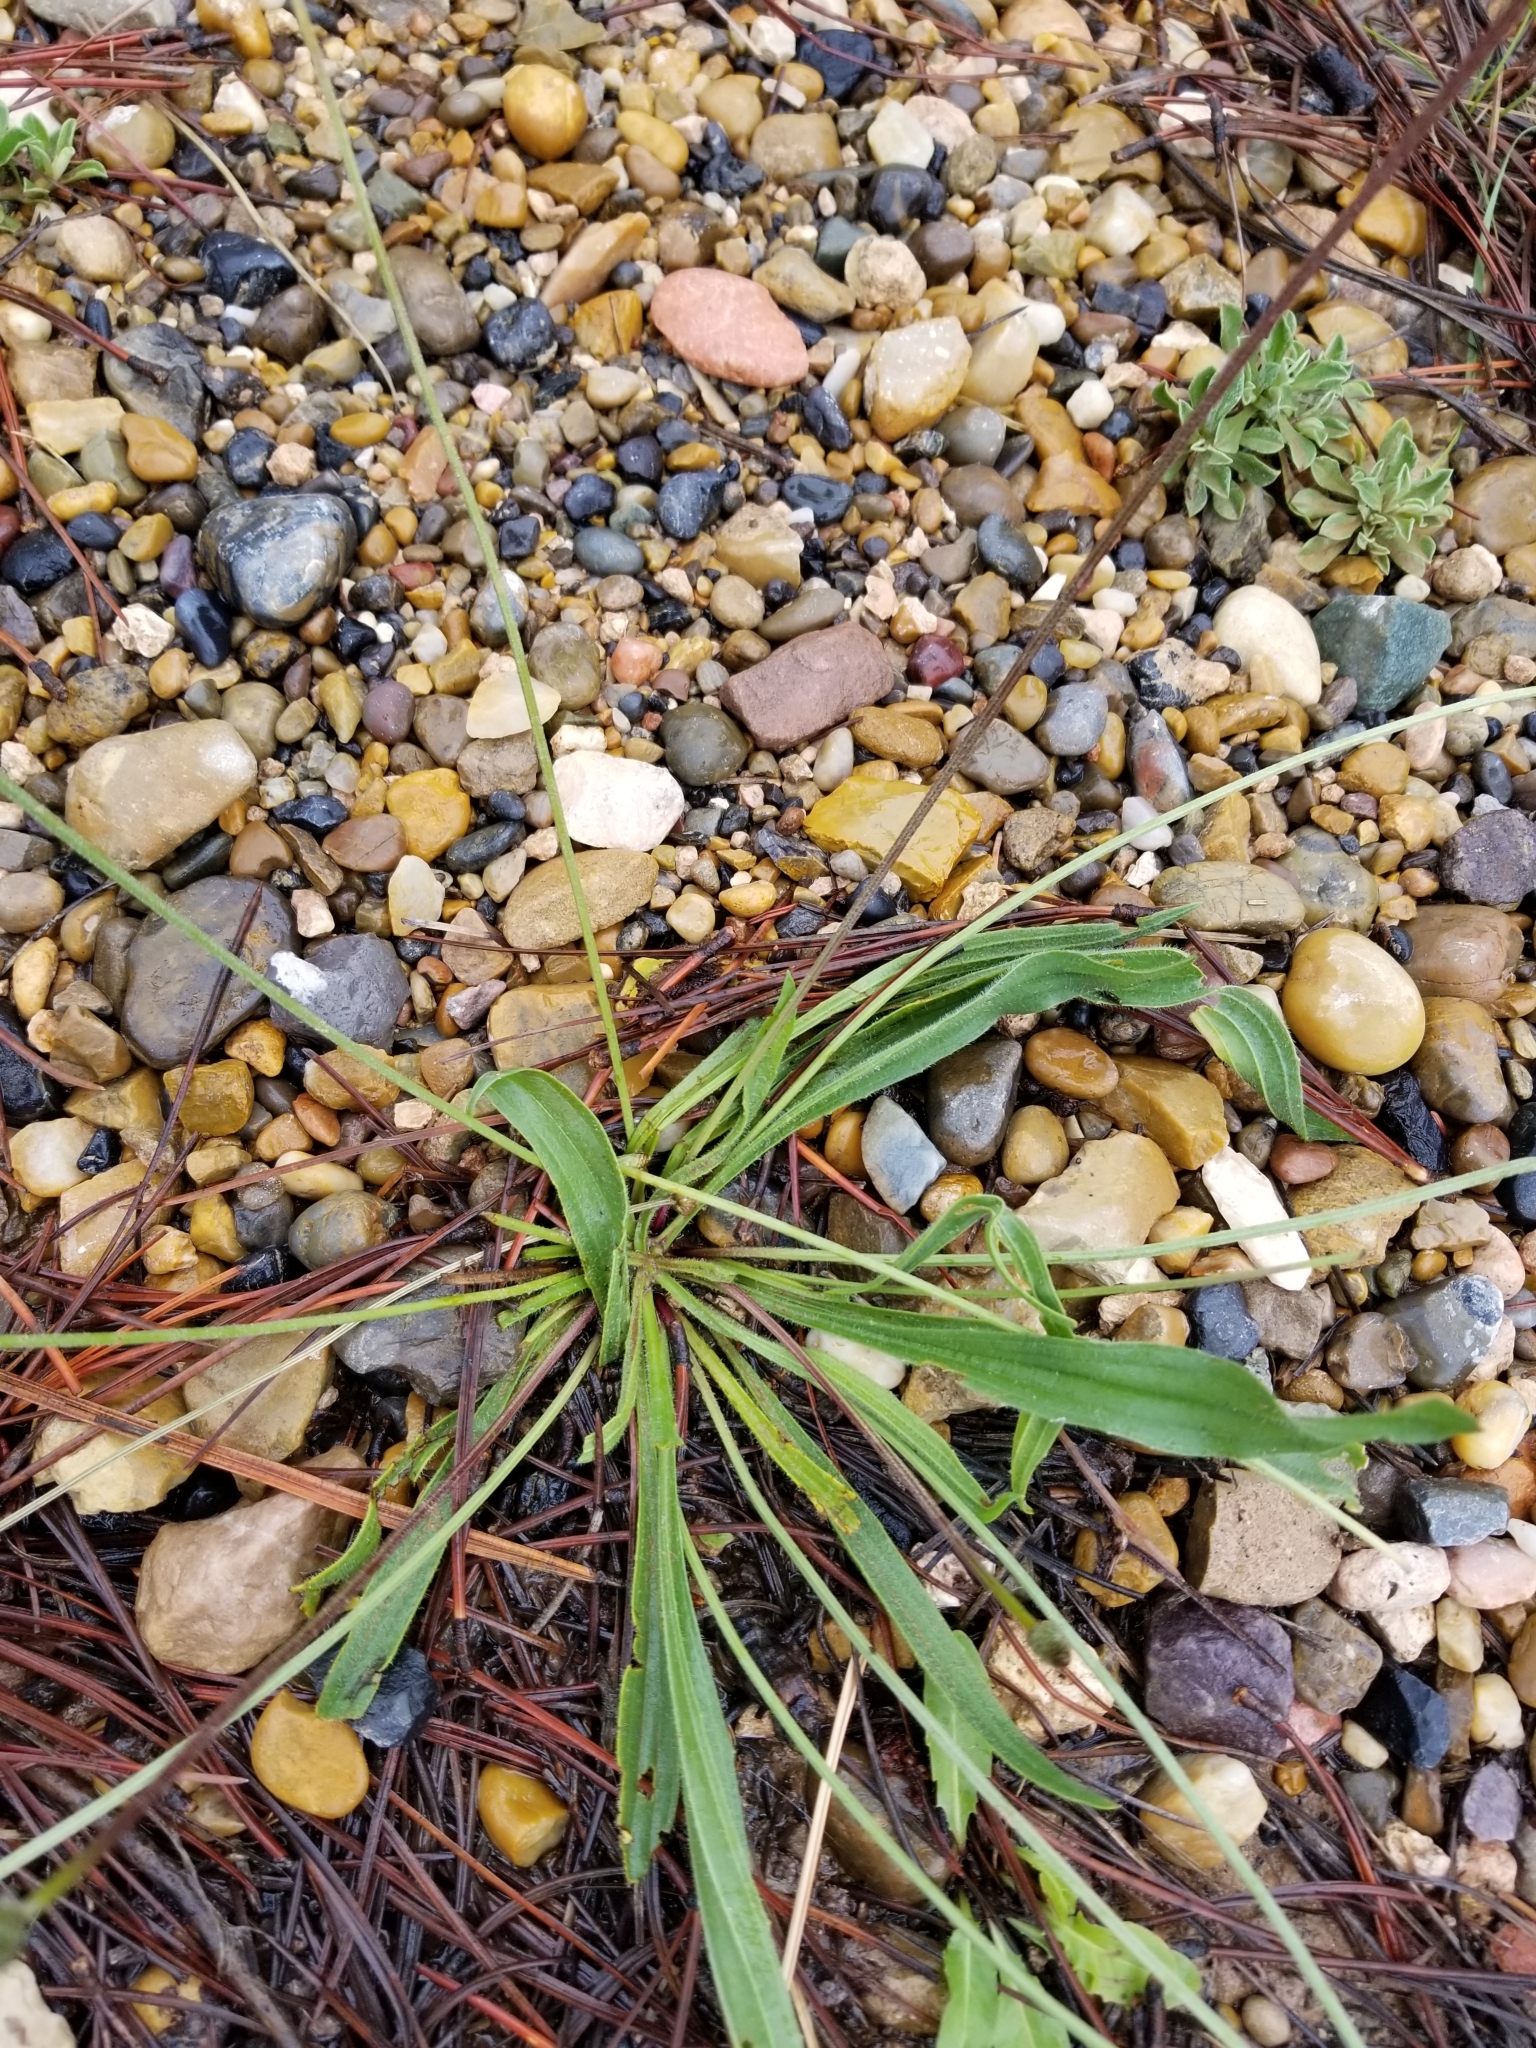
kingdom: Plantae
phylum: Tracheophyta
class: Magnoliopsida
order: Lamiales
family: Plantaginaceae
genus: Plantago
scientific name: Plantago lanceolata
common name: Ribwort plantain
